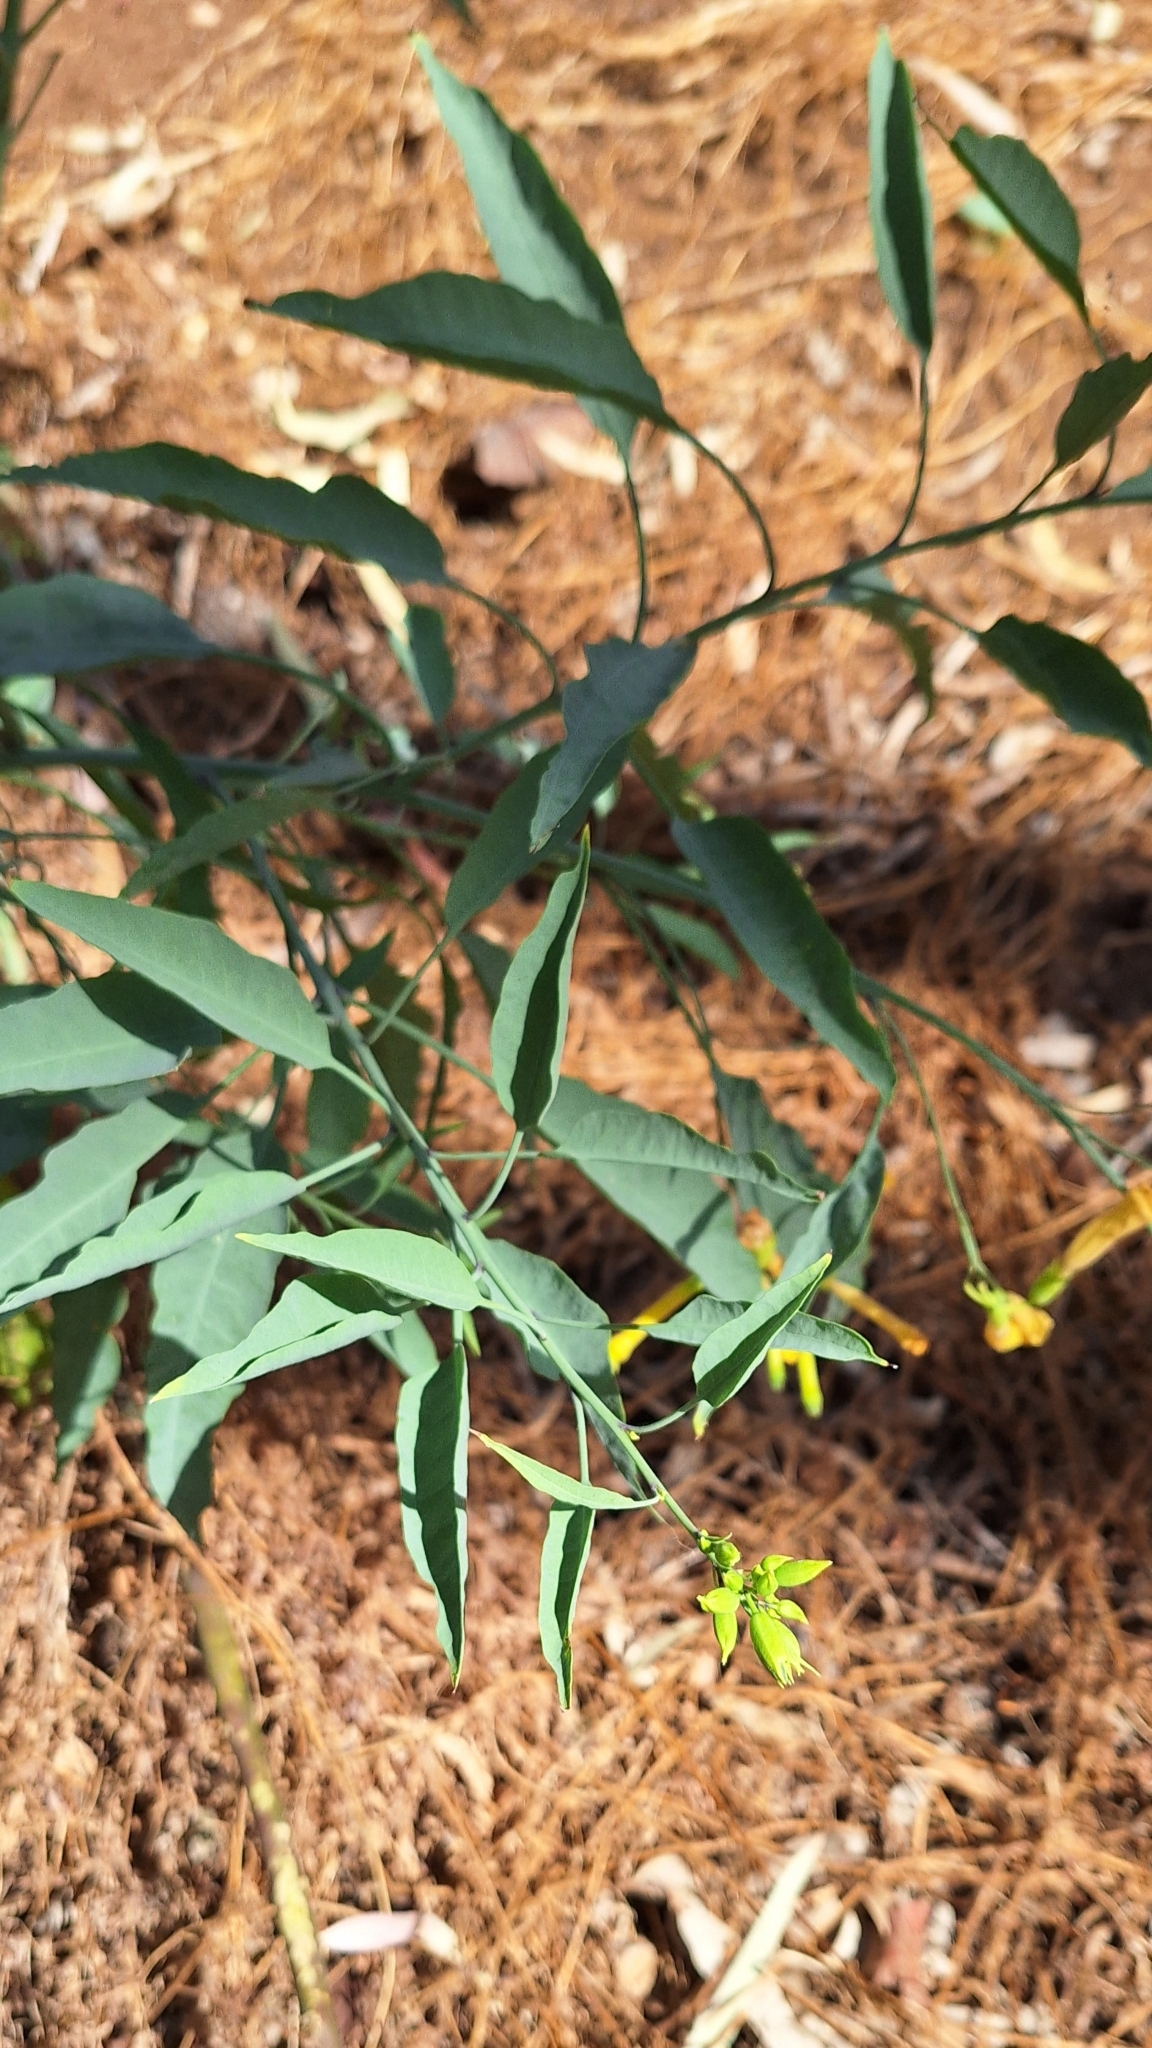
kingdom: Plantae
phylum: Tracheophyta
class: Magnoliopsida
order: Solanales
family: Solanaceae
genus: Nicotiana
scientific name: Nicotiana glauca
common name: Tree tobacco
